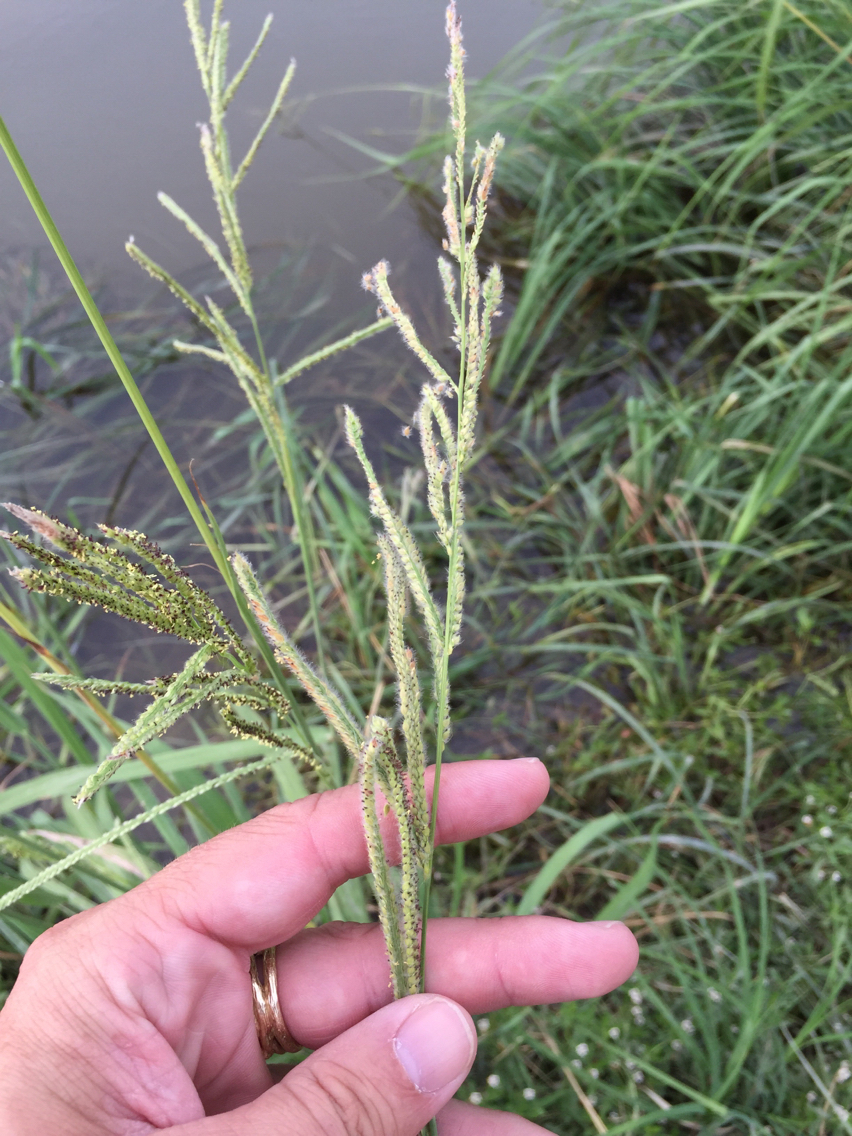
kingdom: Plantae
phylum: Tracheophyta
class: Liliopsida
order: Poales
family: Poaceae
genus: Paspalum
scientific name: Paspalum urvillei
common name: Vasey's grass
